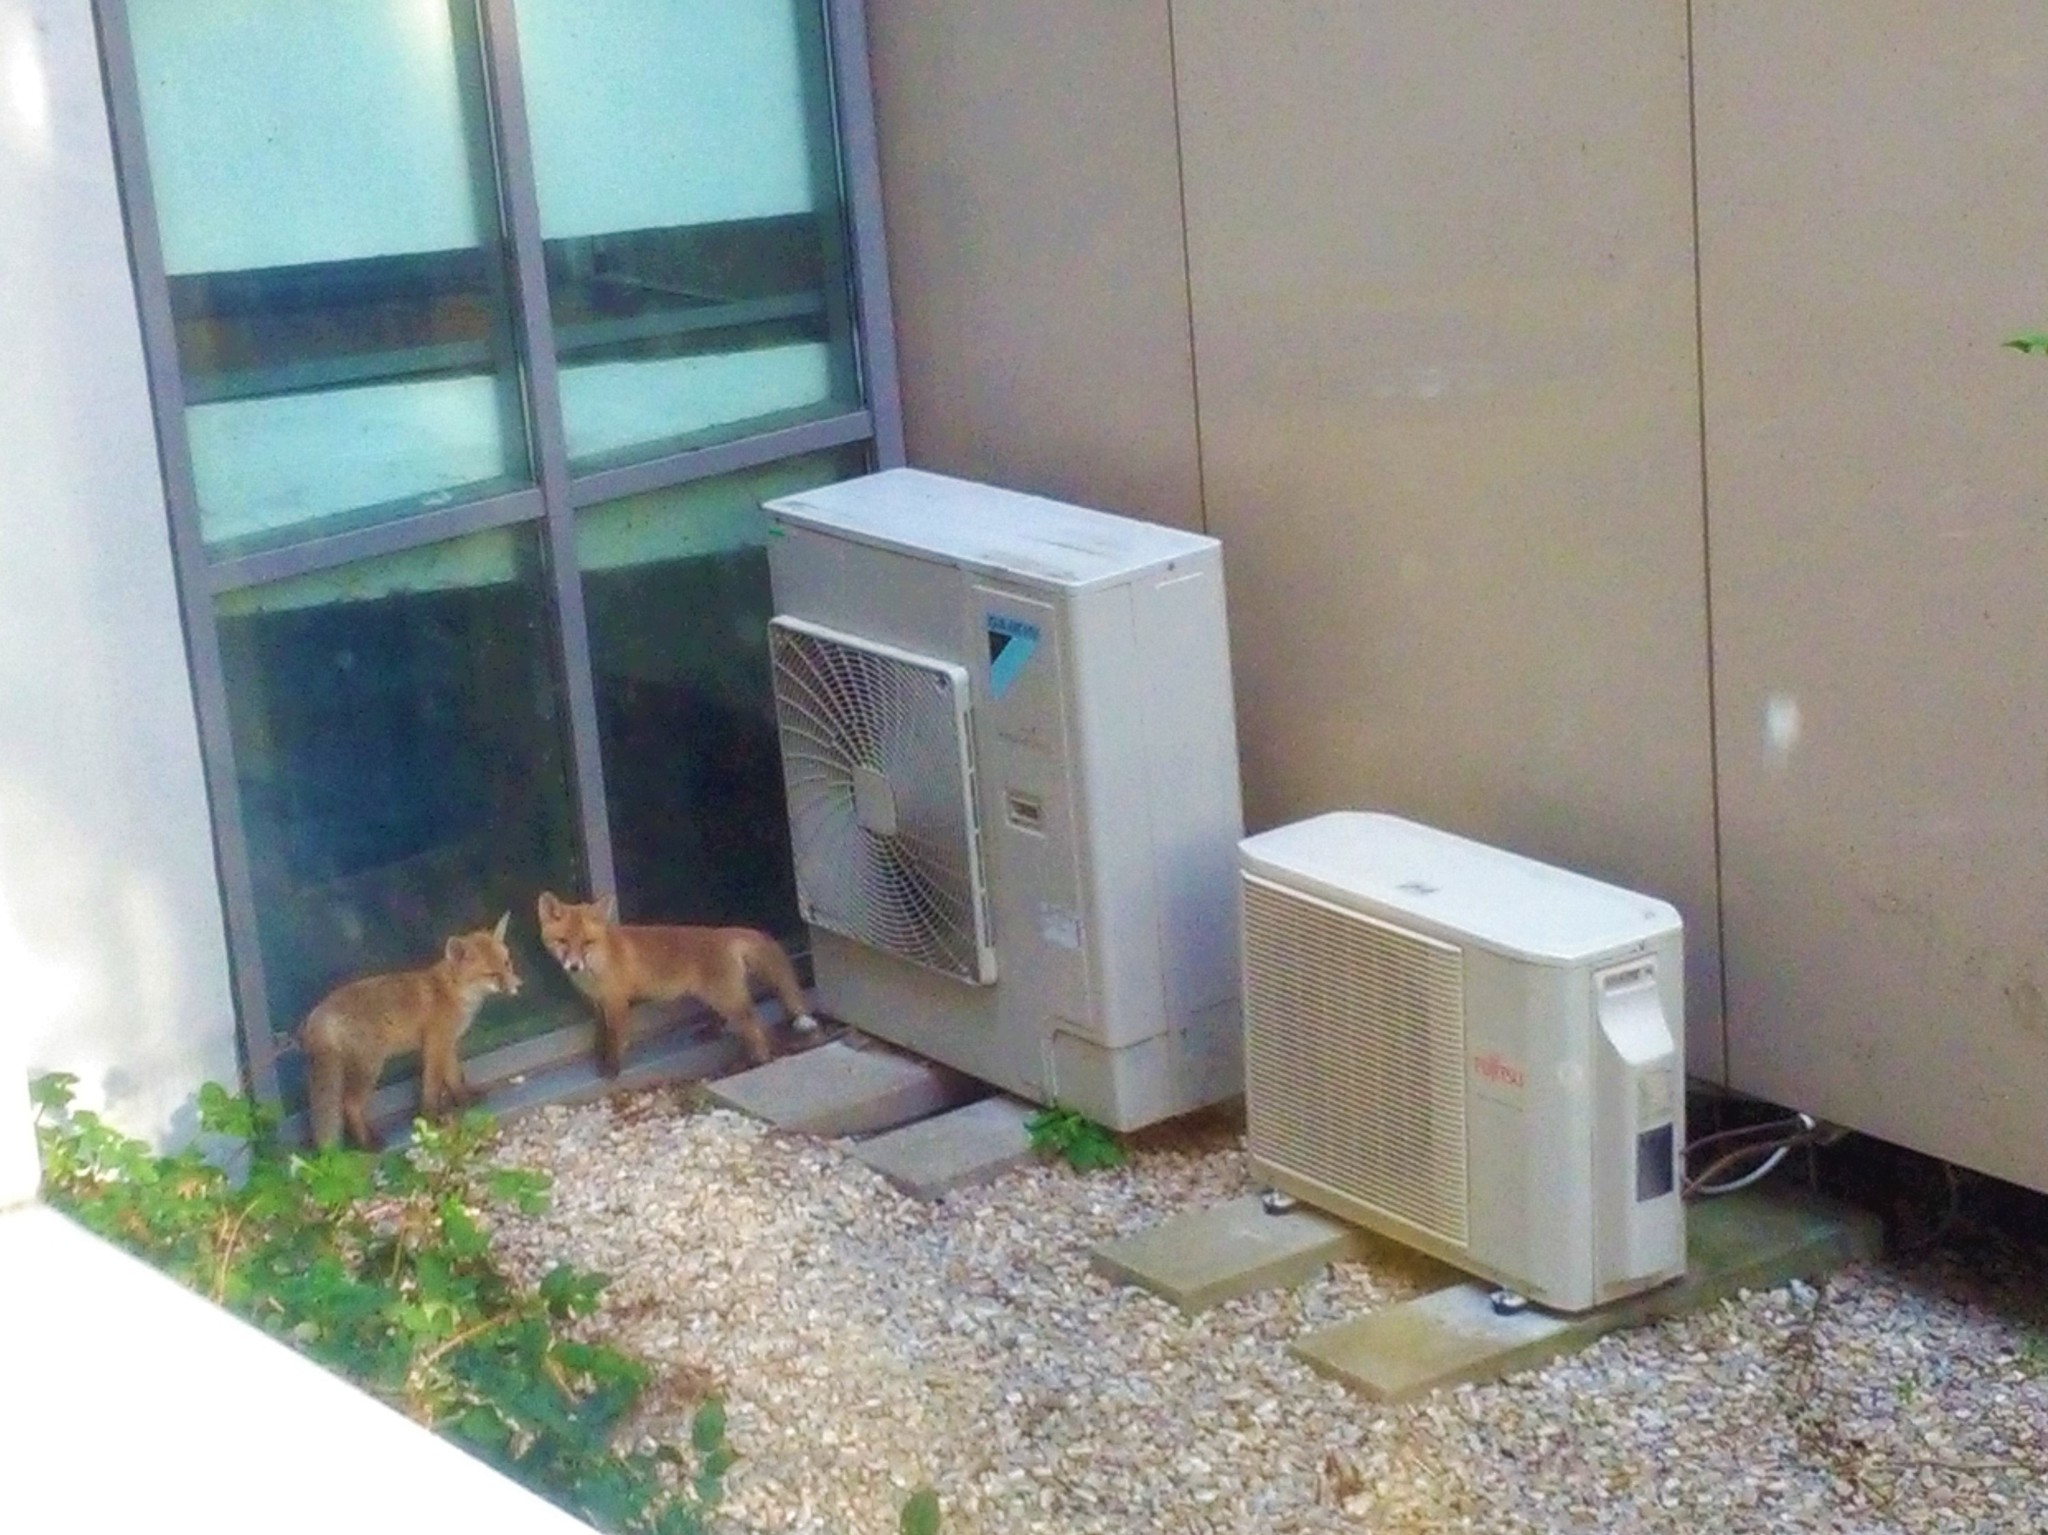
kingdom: Animalia
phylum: Chordata
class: Mammalia
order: Carnivora
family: Canidae
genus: Vulpes
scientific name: Vulpes vulpes
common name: Red fox
